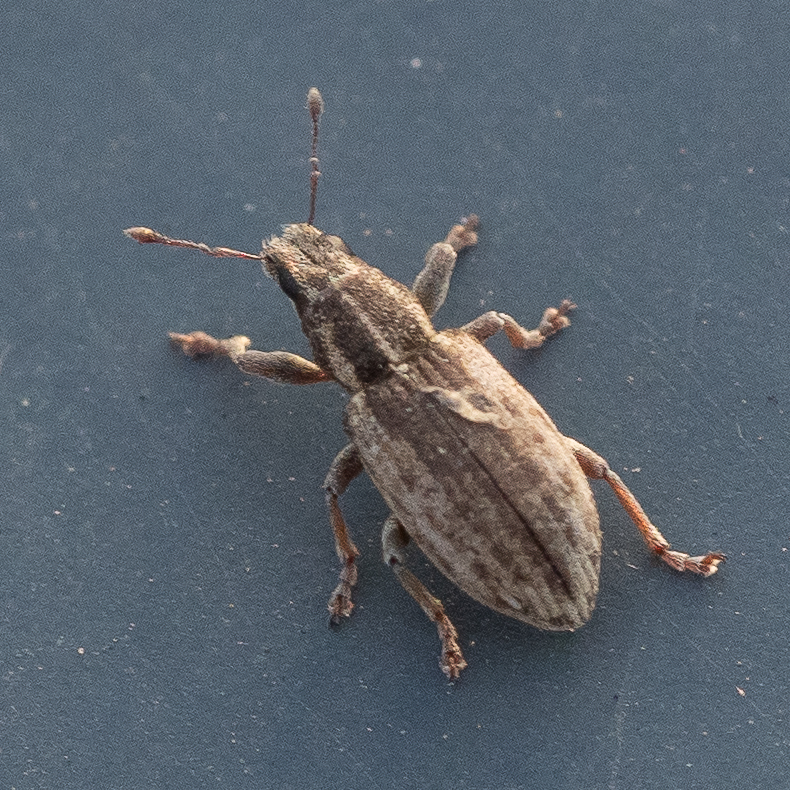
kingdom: Animalia
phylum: Arthropoda
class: Insecta
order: Coleoptera
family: Curculionidae
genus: Sitona
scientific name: Sitona humeralis
